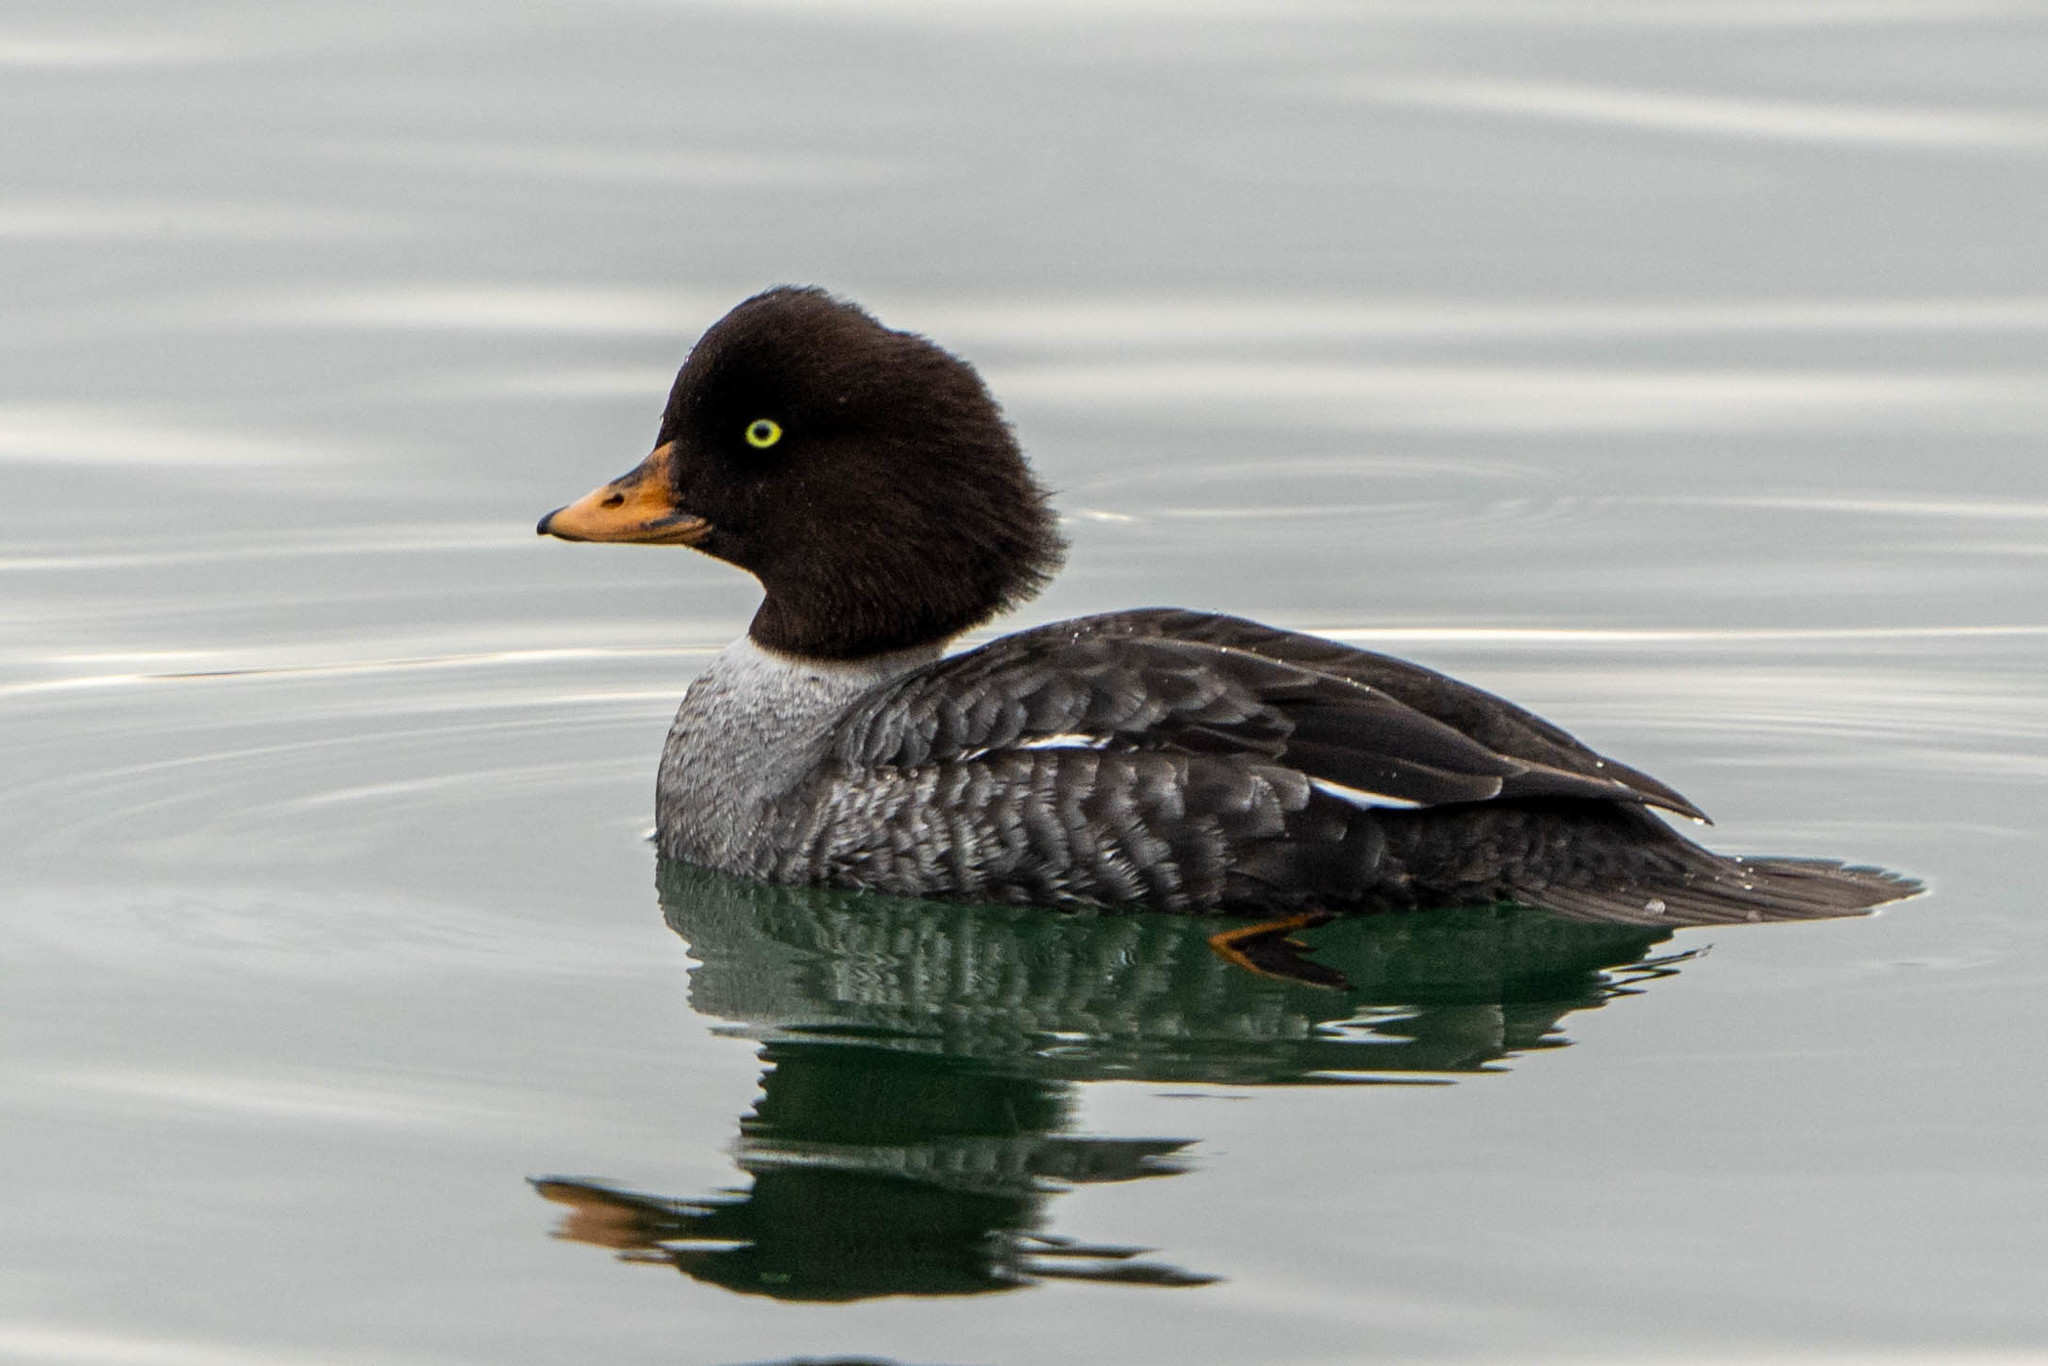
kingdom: Animalia
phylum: Chordata
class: Aves
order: Anseriformes
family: Anatidae
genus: Bucephala
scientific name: Bucephala islandica
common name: Barrow's goldeneye
